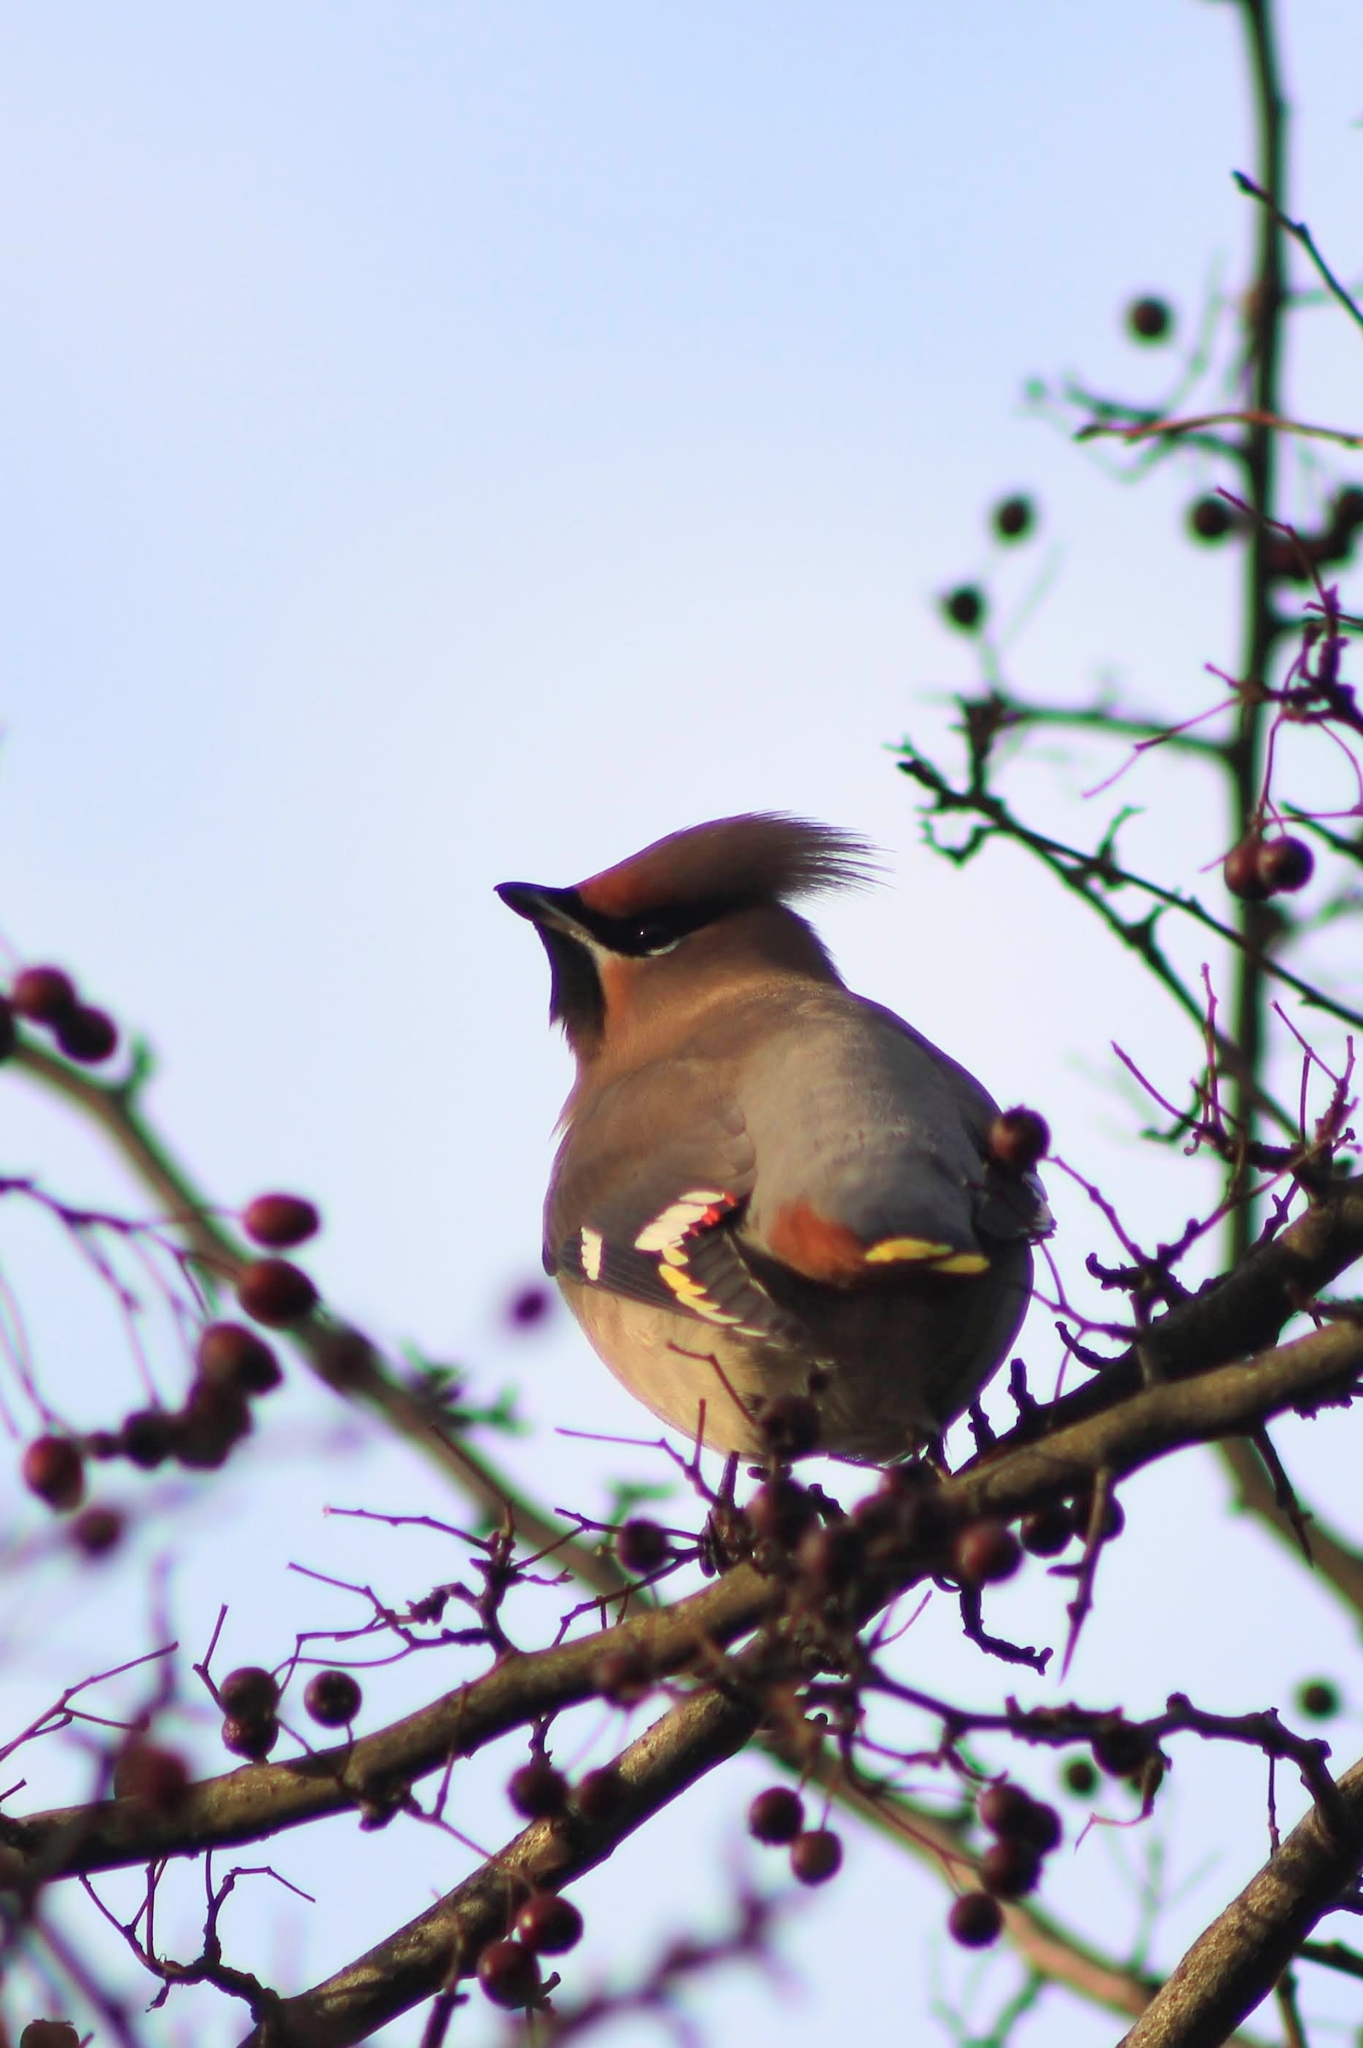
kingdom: Animalia
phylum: Chordata
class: Aves
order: Passeriformes
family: Bombycillidae
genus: Bombycilla
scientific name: Bombycilla garrulus
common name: Bohemian waxwing
